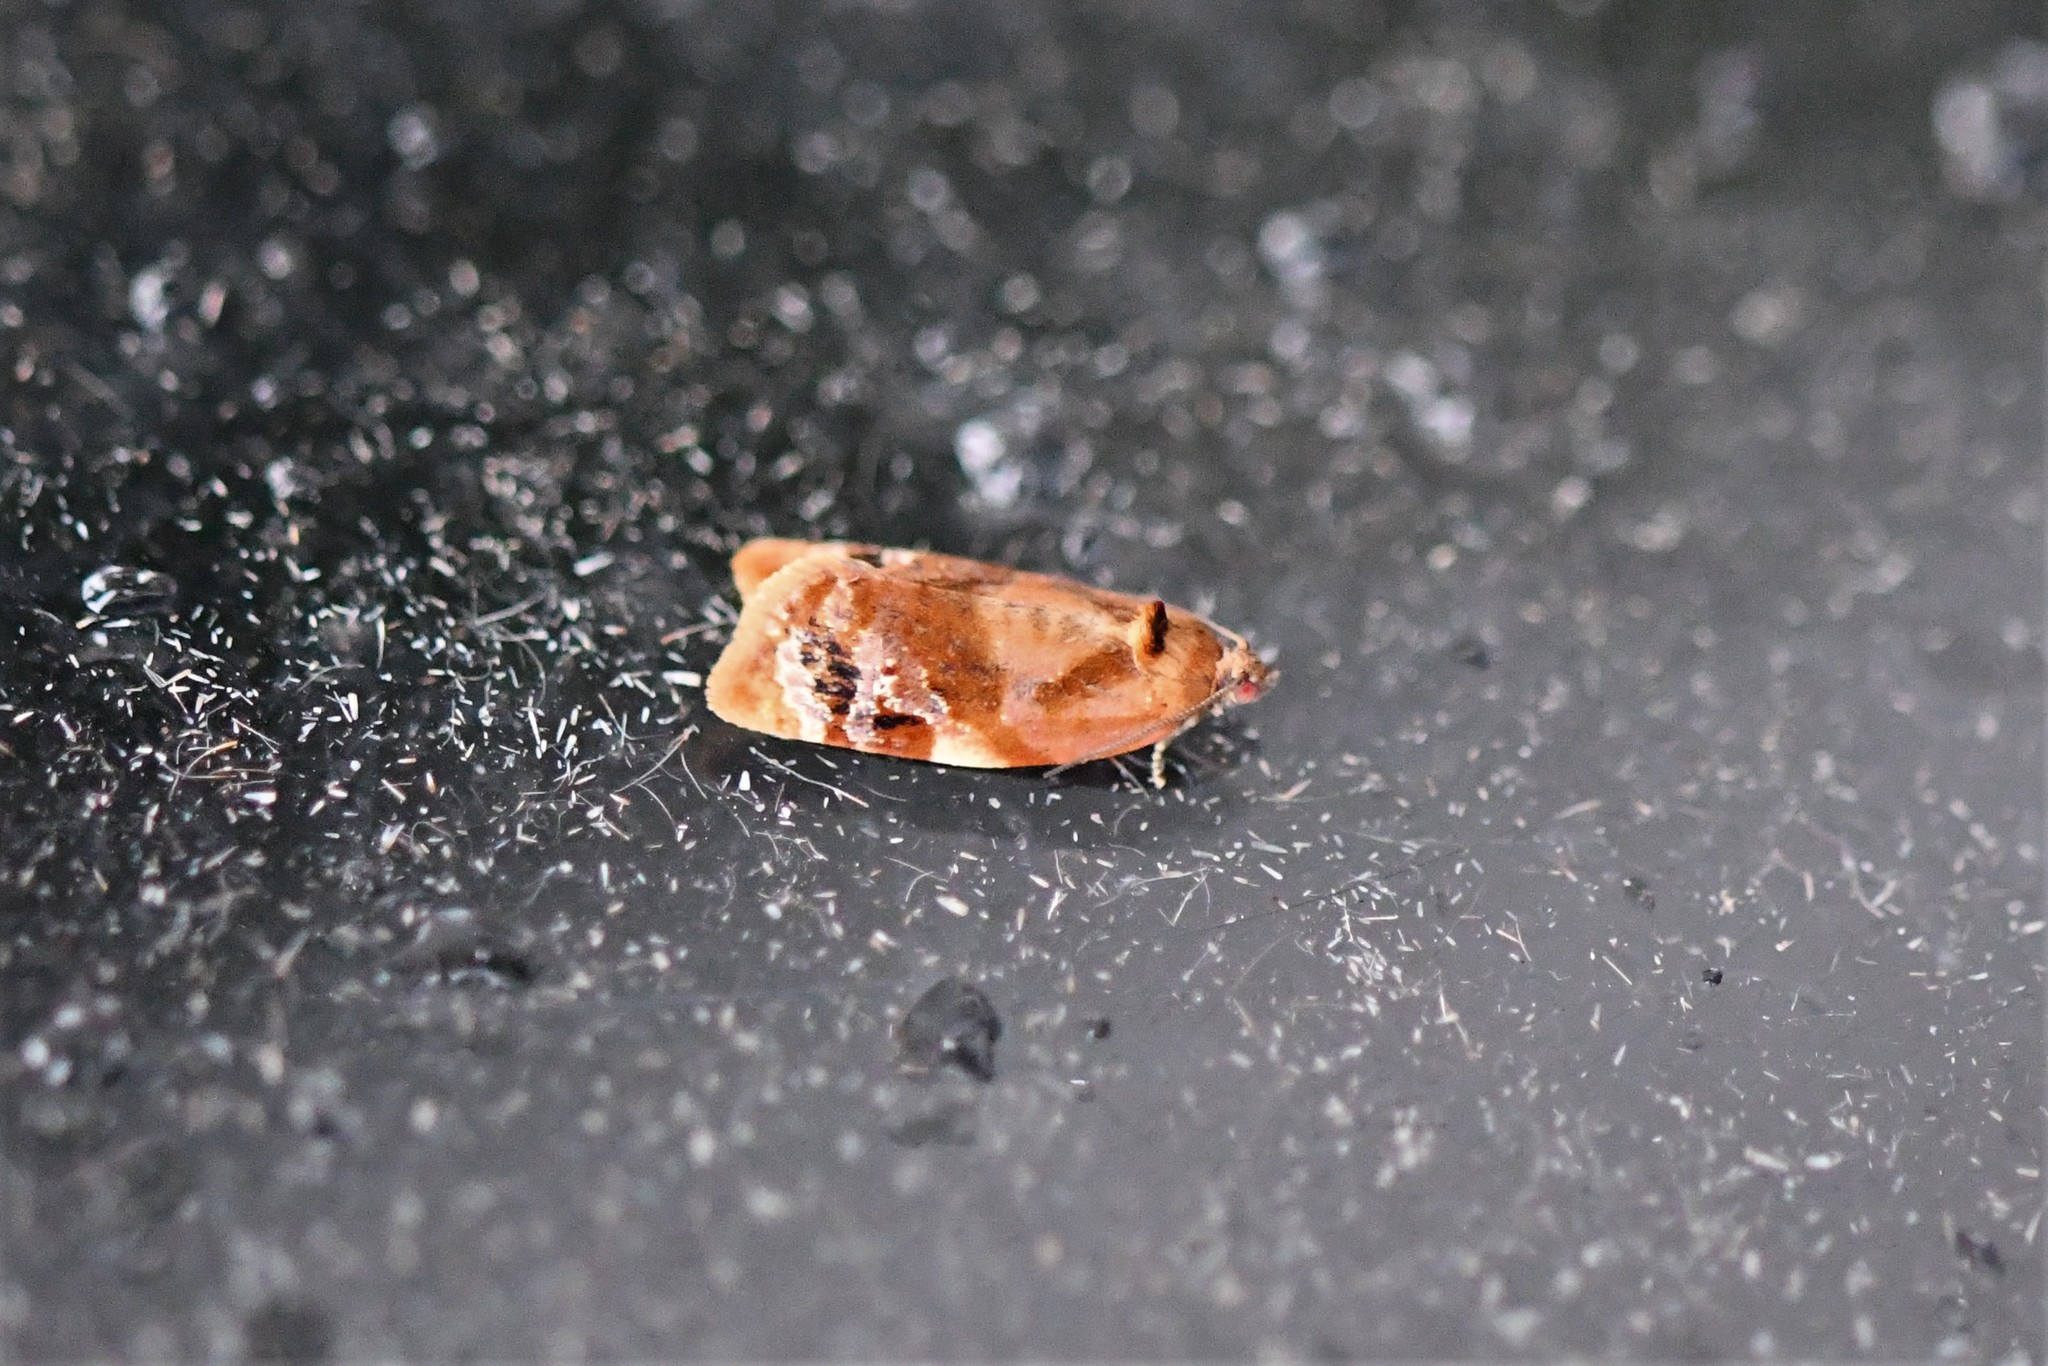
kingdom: Animalia
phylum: Arthropoda
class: Insecta
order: Lepidoptera
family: Tortricidae
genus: Ditula
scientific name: Ditula angustiorana
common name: Red-barred tortrix
